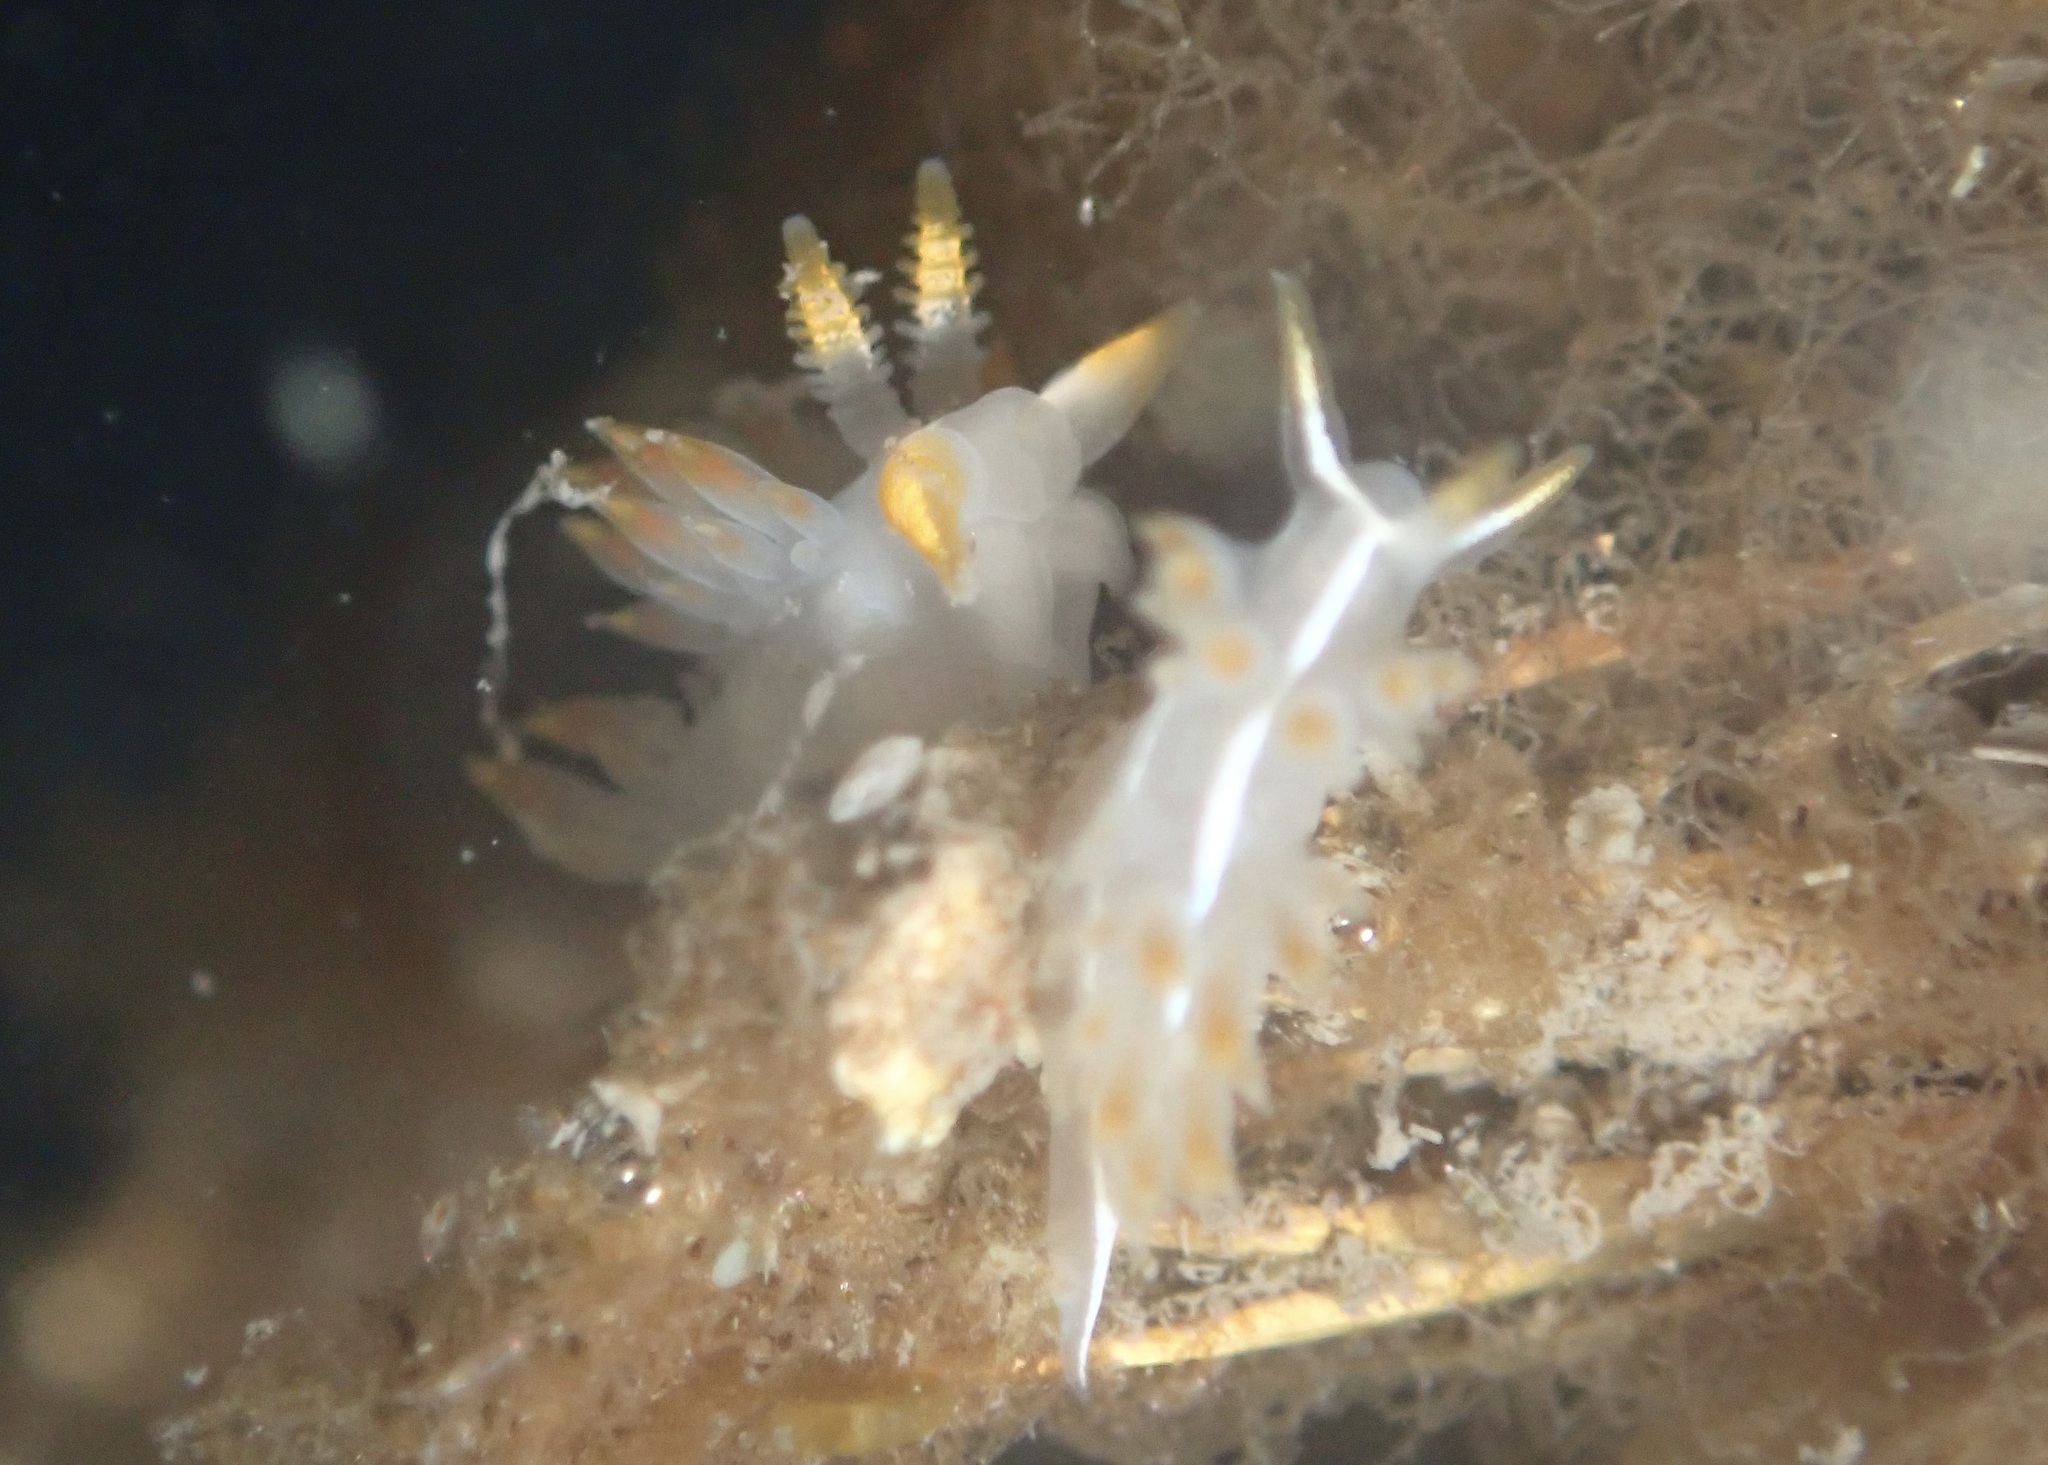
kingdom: Animalia
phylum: Mollusca
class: Gastropoda
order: Nudibranchia
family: Coryphellidae
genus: Coryphella
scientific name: Coryphella trilineata
